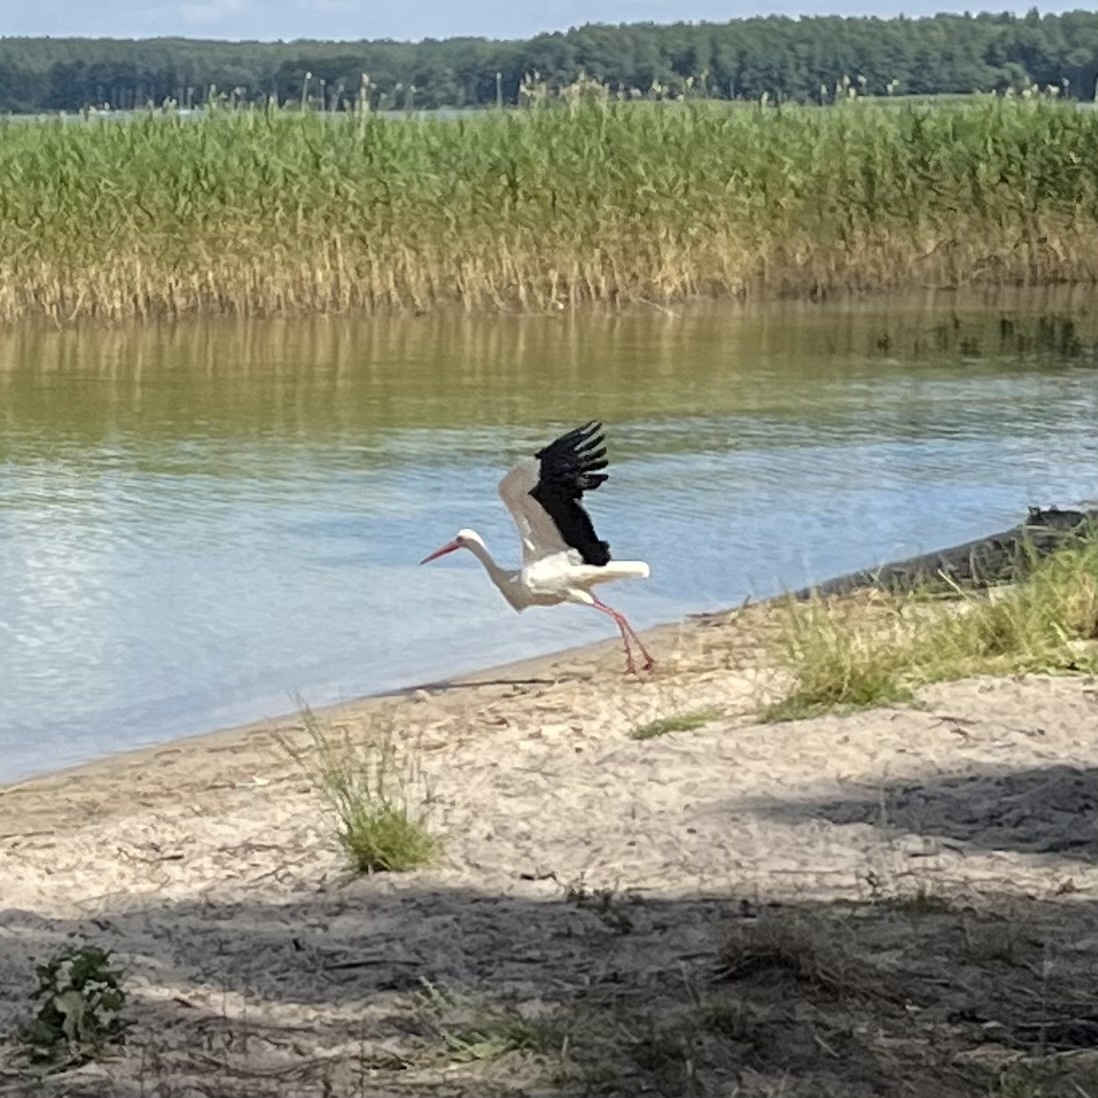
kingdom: Animalia
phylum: Chordata
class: Aves
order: Ciconiiformes
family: Ciconiidae
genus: Ciconia
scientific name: Ciconia ciconia
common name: White stork
